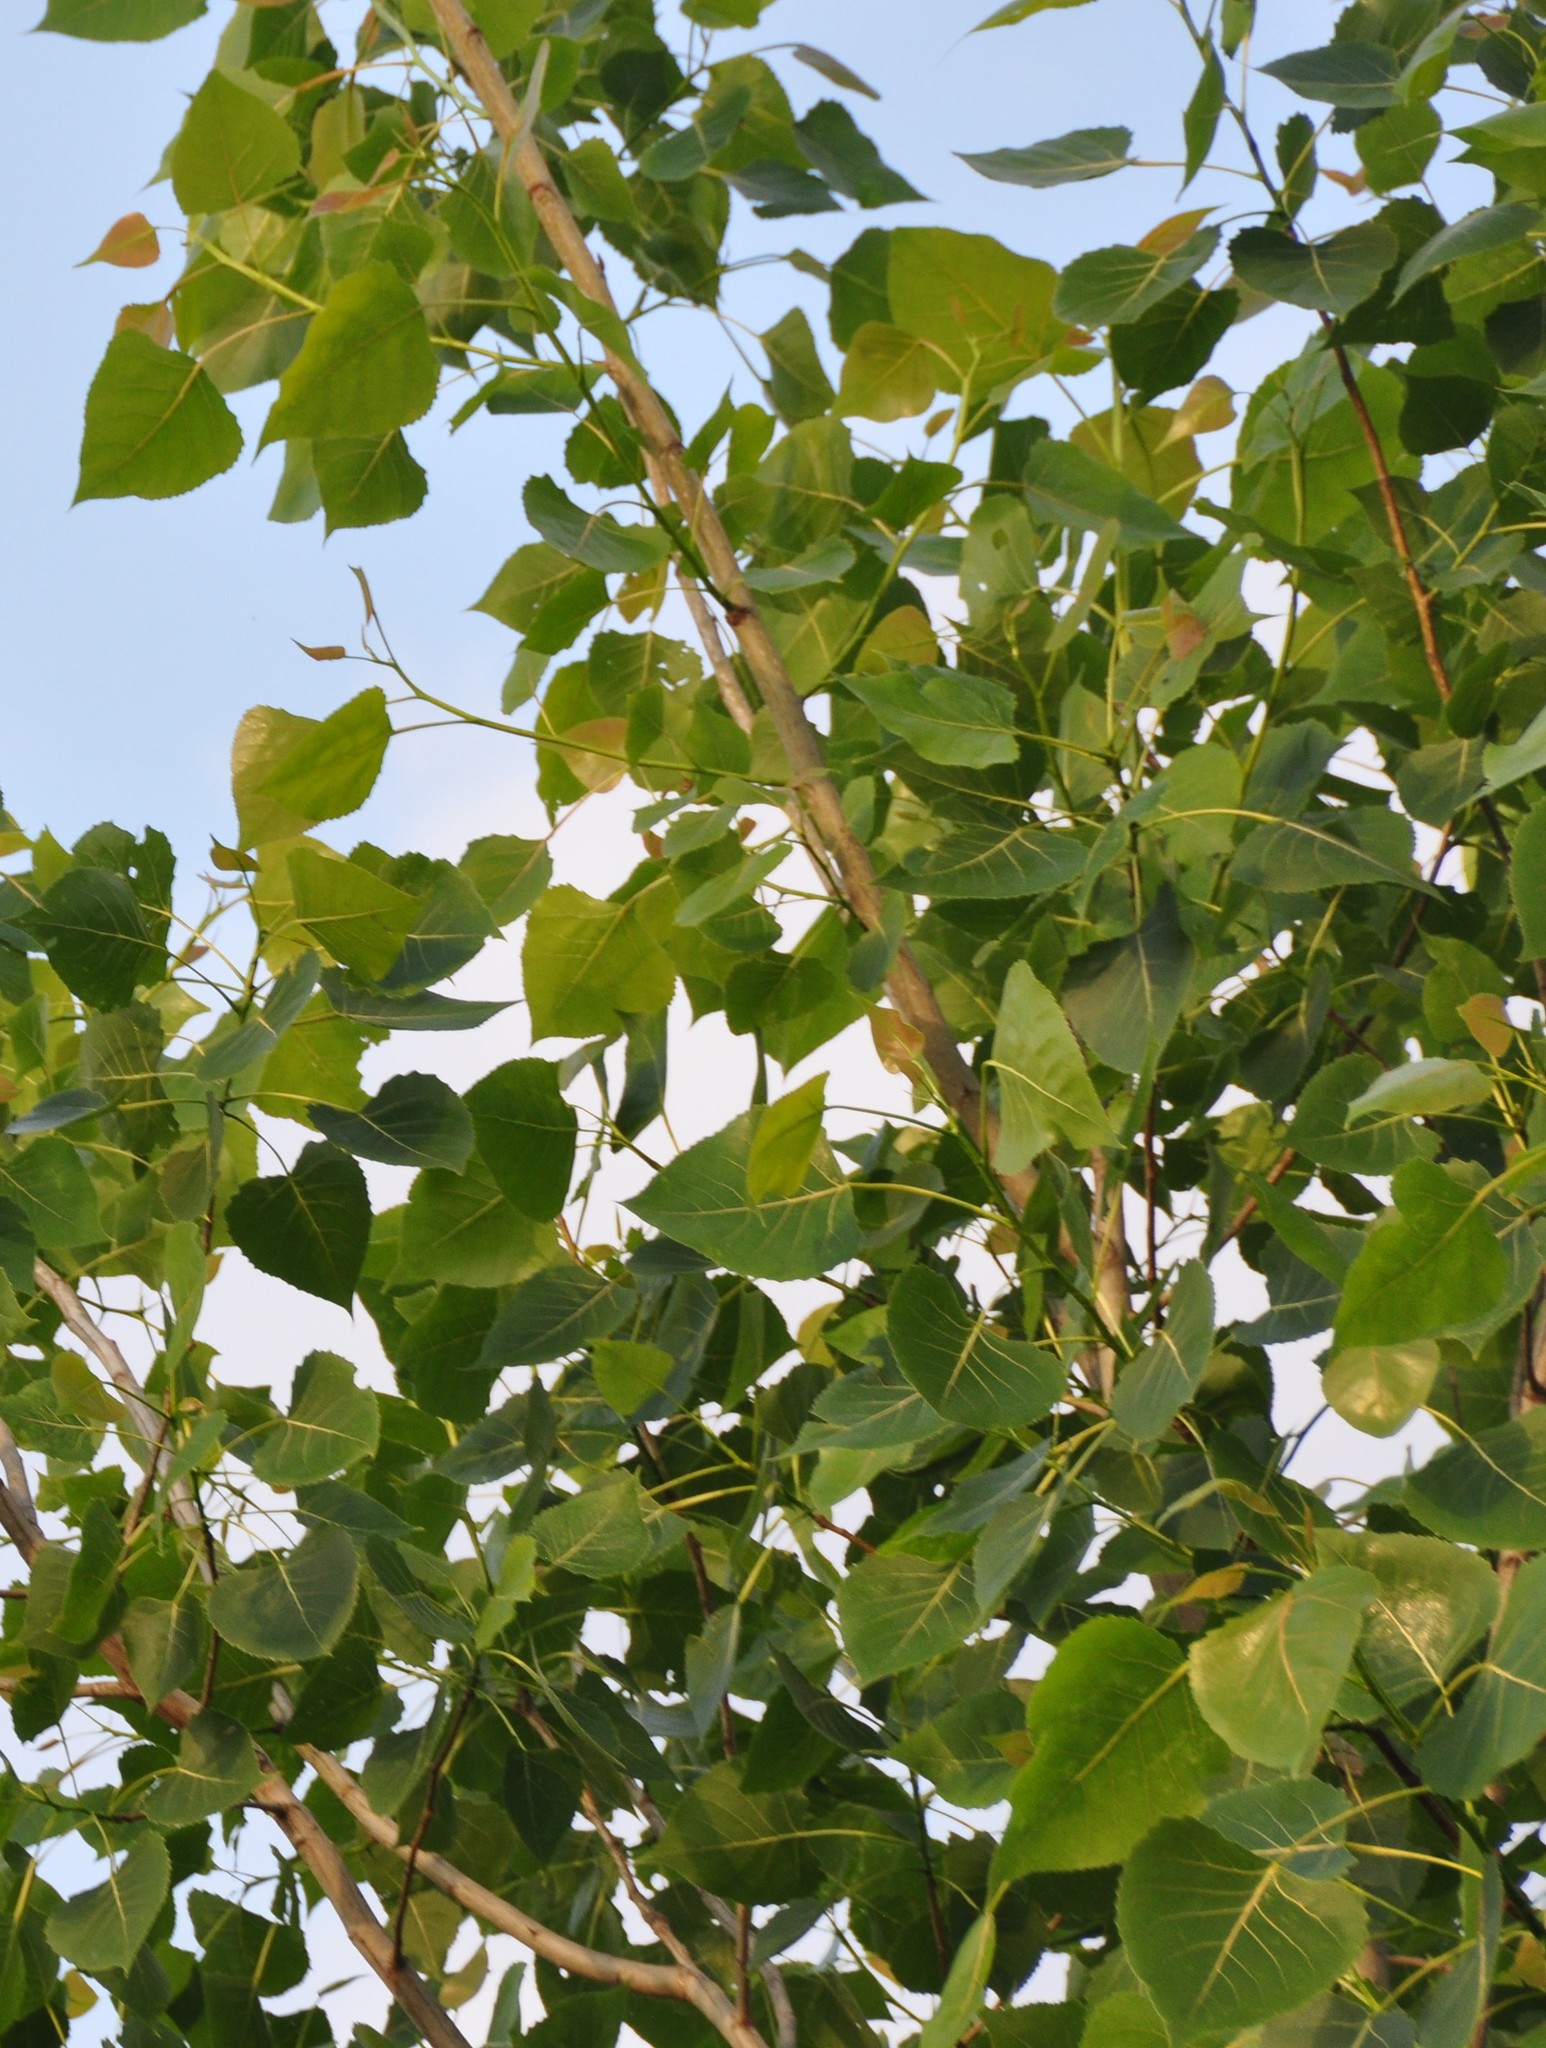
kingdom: Plantae
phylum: Tracheophyta
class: Magnoliopsida
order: Malpighiales
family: Salicaceae
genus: Populus
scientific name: Populus deltoides
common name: Eastern cottonwood
